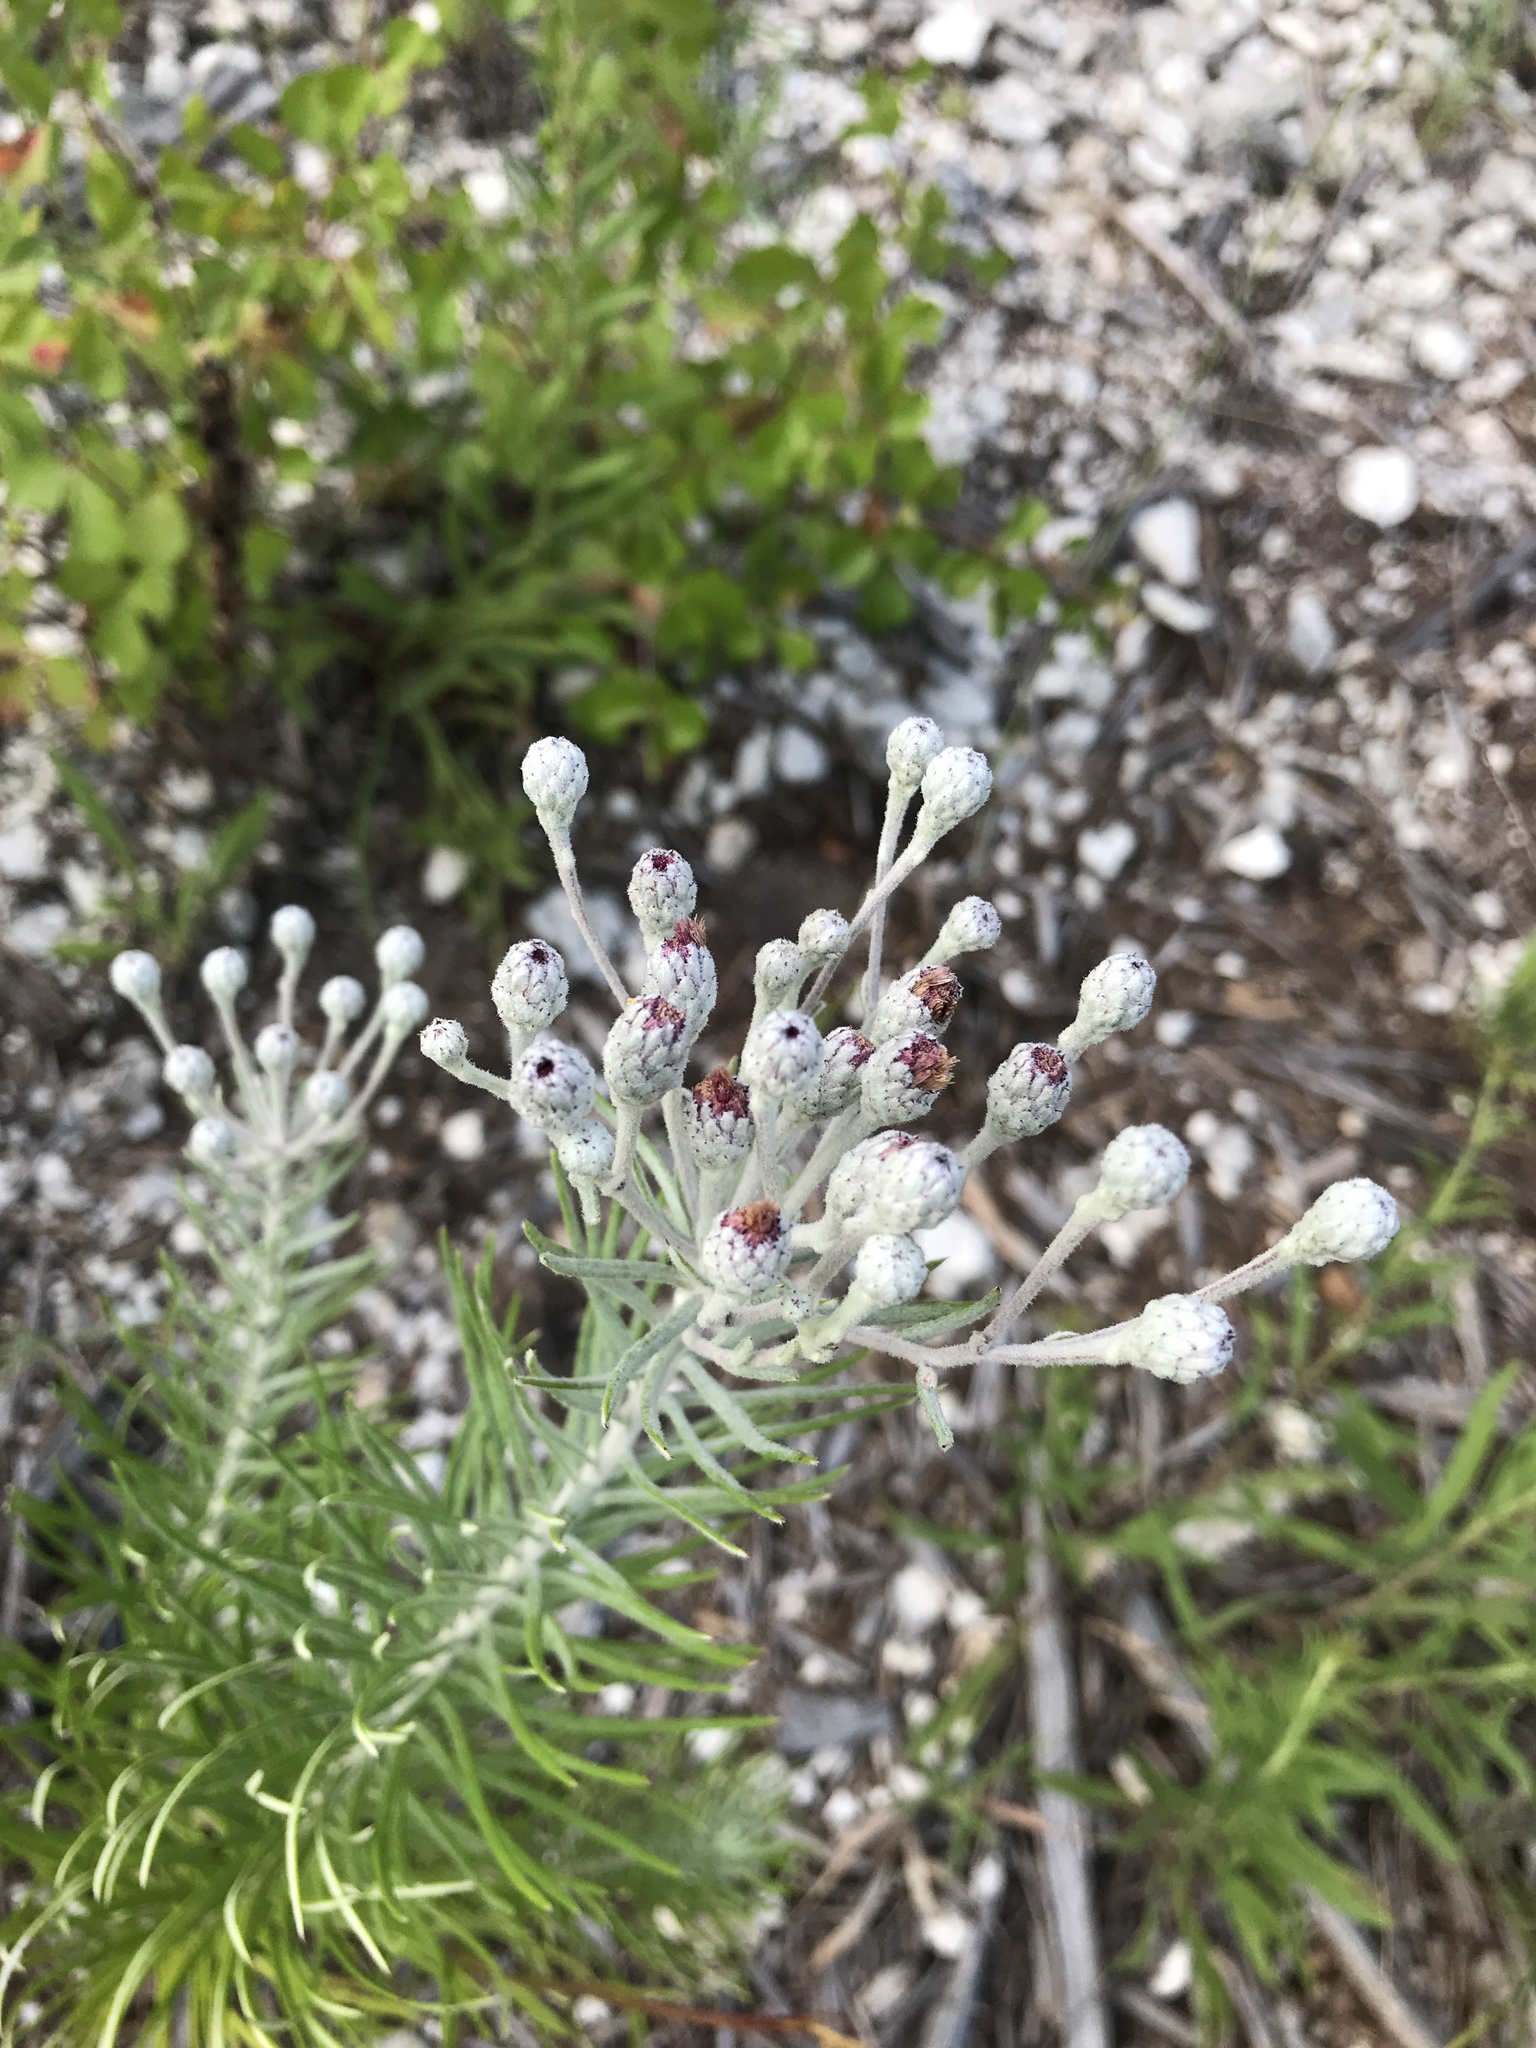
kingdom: Plantae
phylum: Tracheophyta
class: Magnoliopsida
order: Asterales
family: Asteraceae
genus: Vernonia
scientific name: Vernonia lindheimeri
